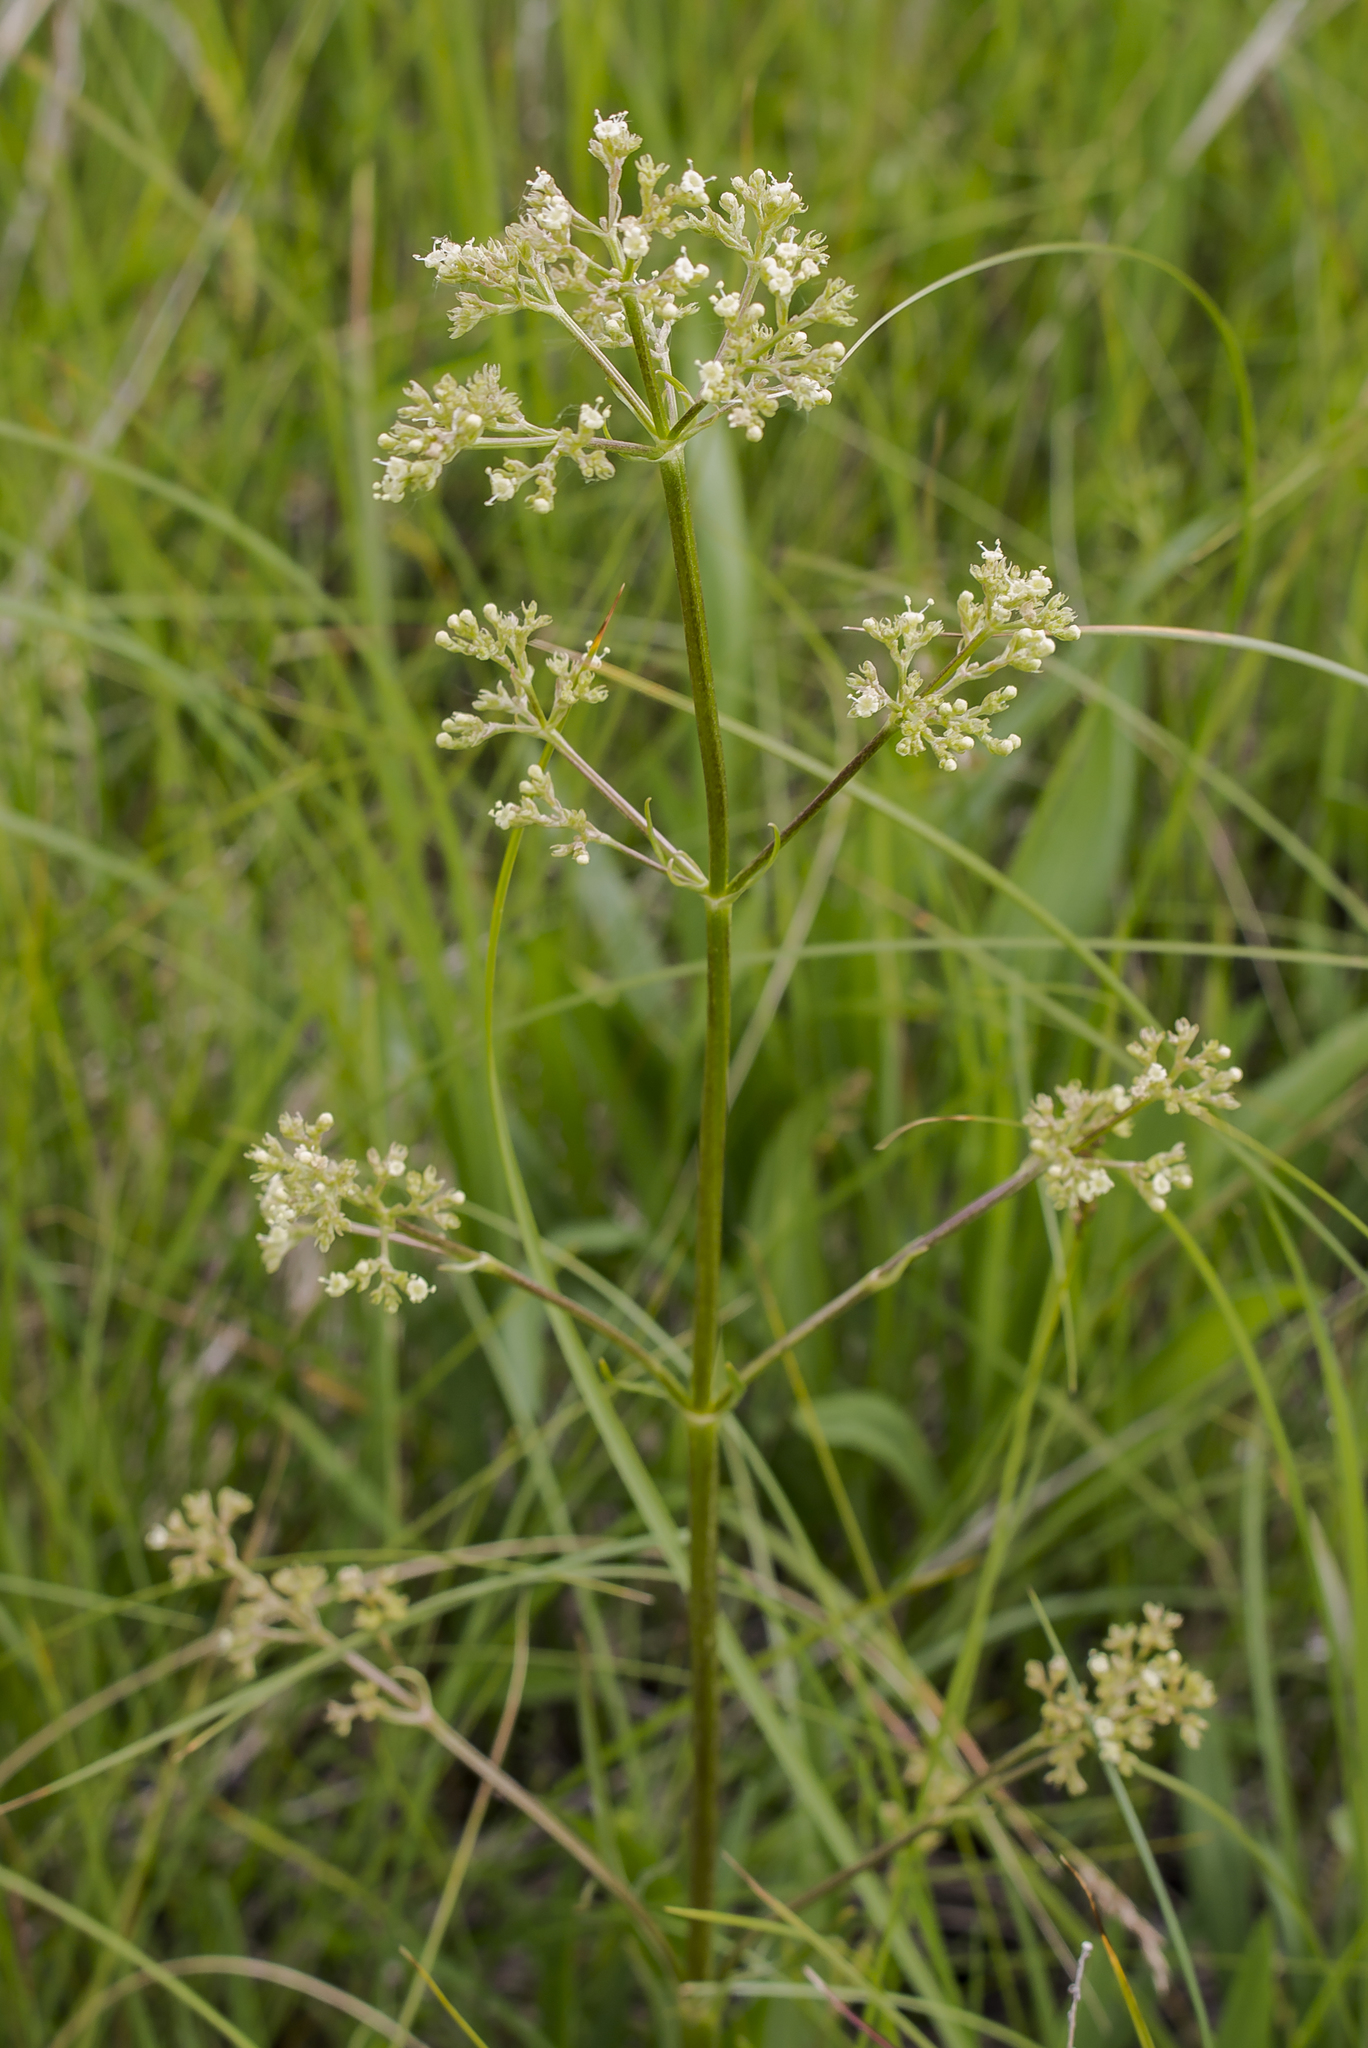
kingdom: Plantae
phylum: Tracheophyta
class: Magnoliopsida
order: Dipsacales
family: Caprifoliaceae
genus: Valeriana
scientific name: Valeriana edulis
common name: Taproot valerian
